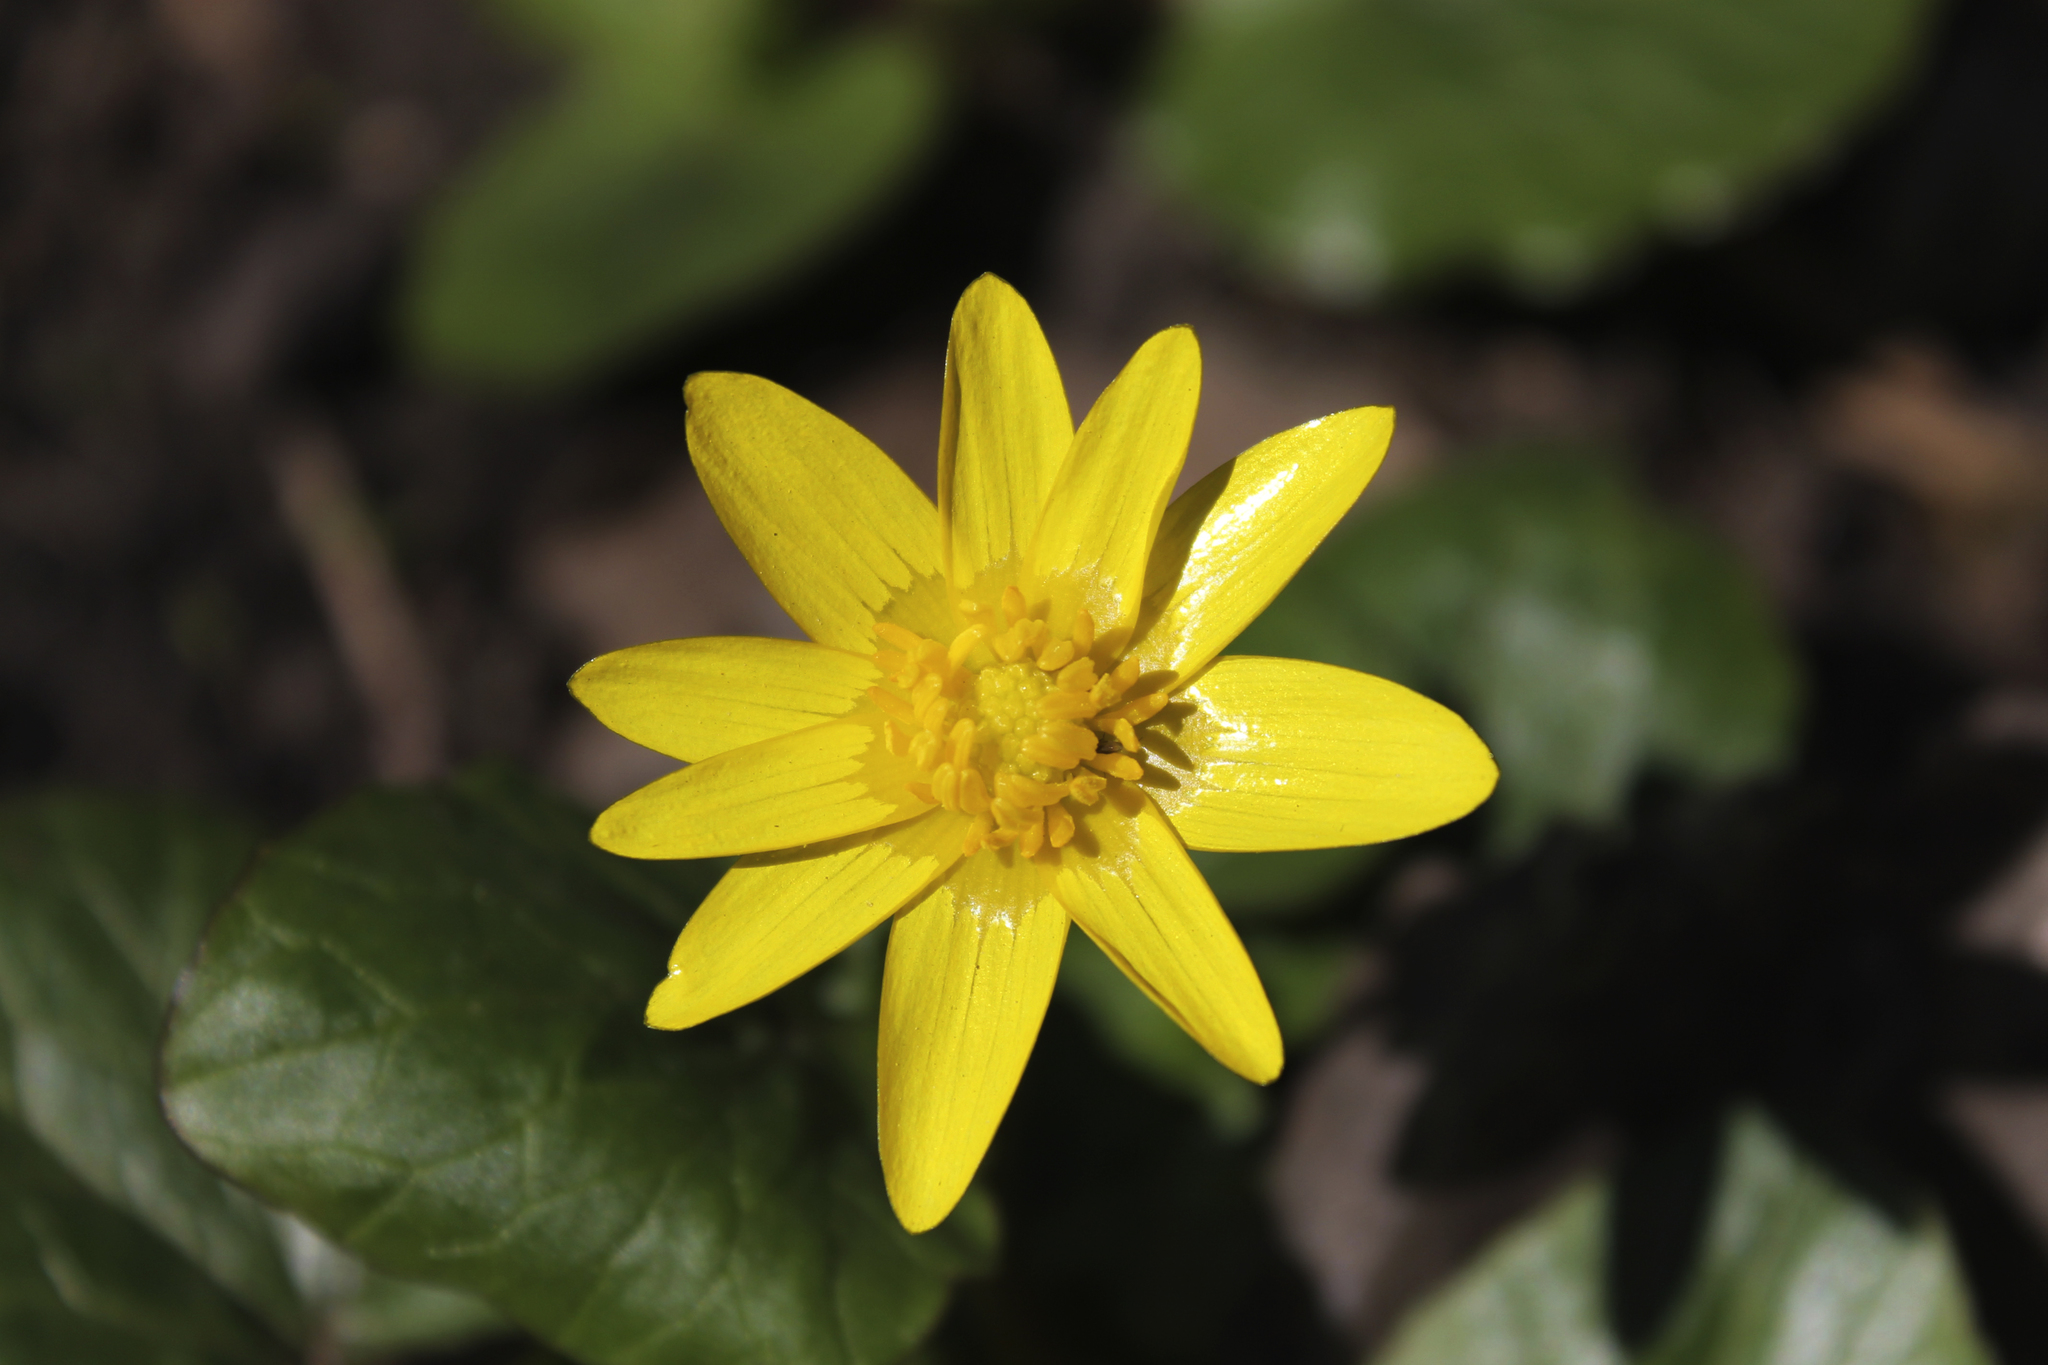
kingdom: Plantae
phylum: Tracheophyta
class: Magnoliopsida
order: Ranunculales
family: Ranunculaceae
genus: Ficaria
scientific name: Ficaria verna
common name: Lesser celandine
